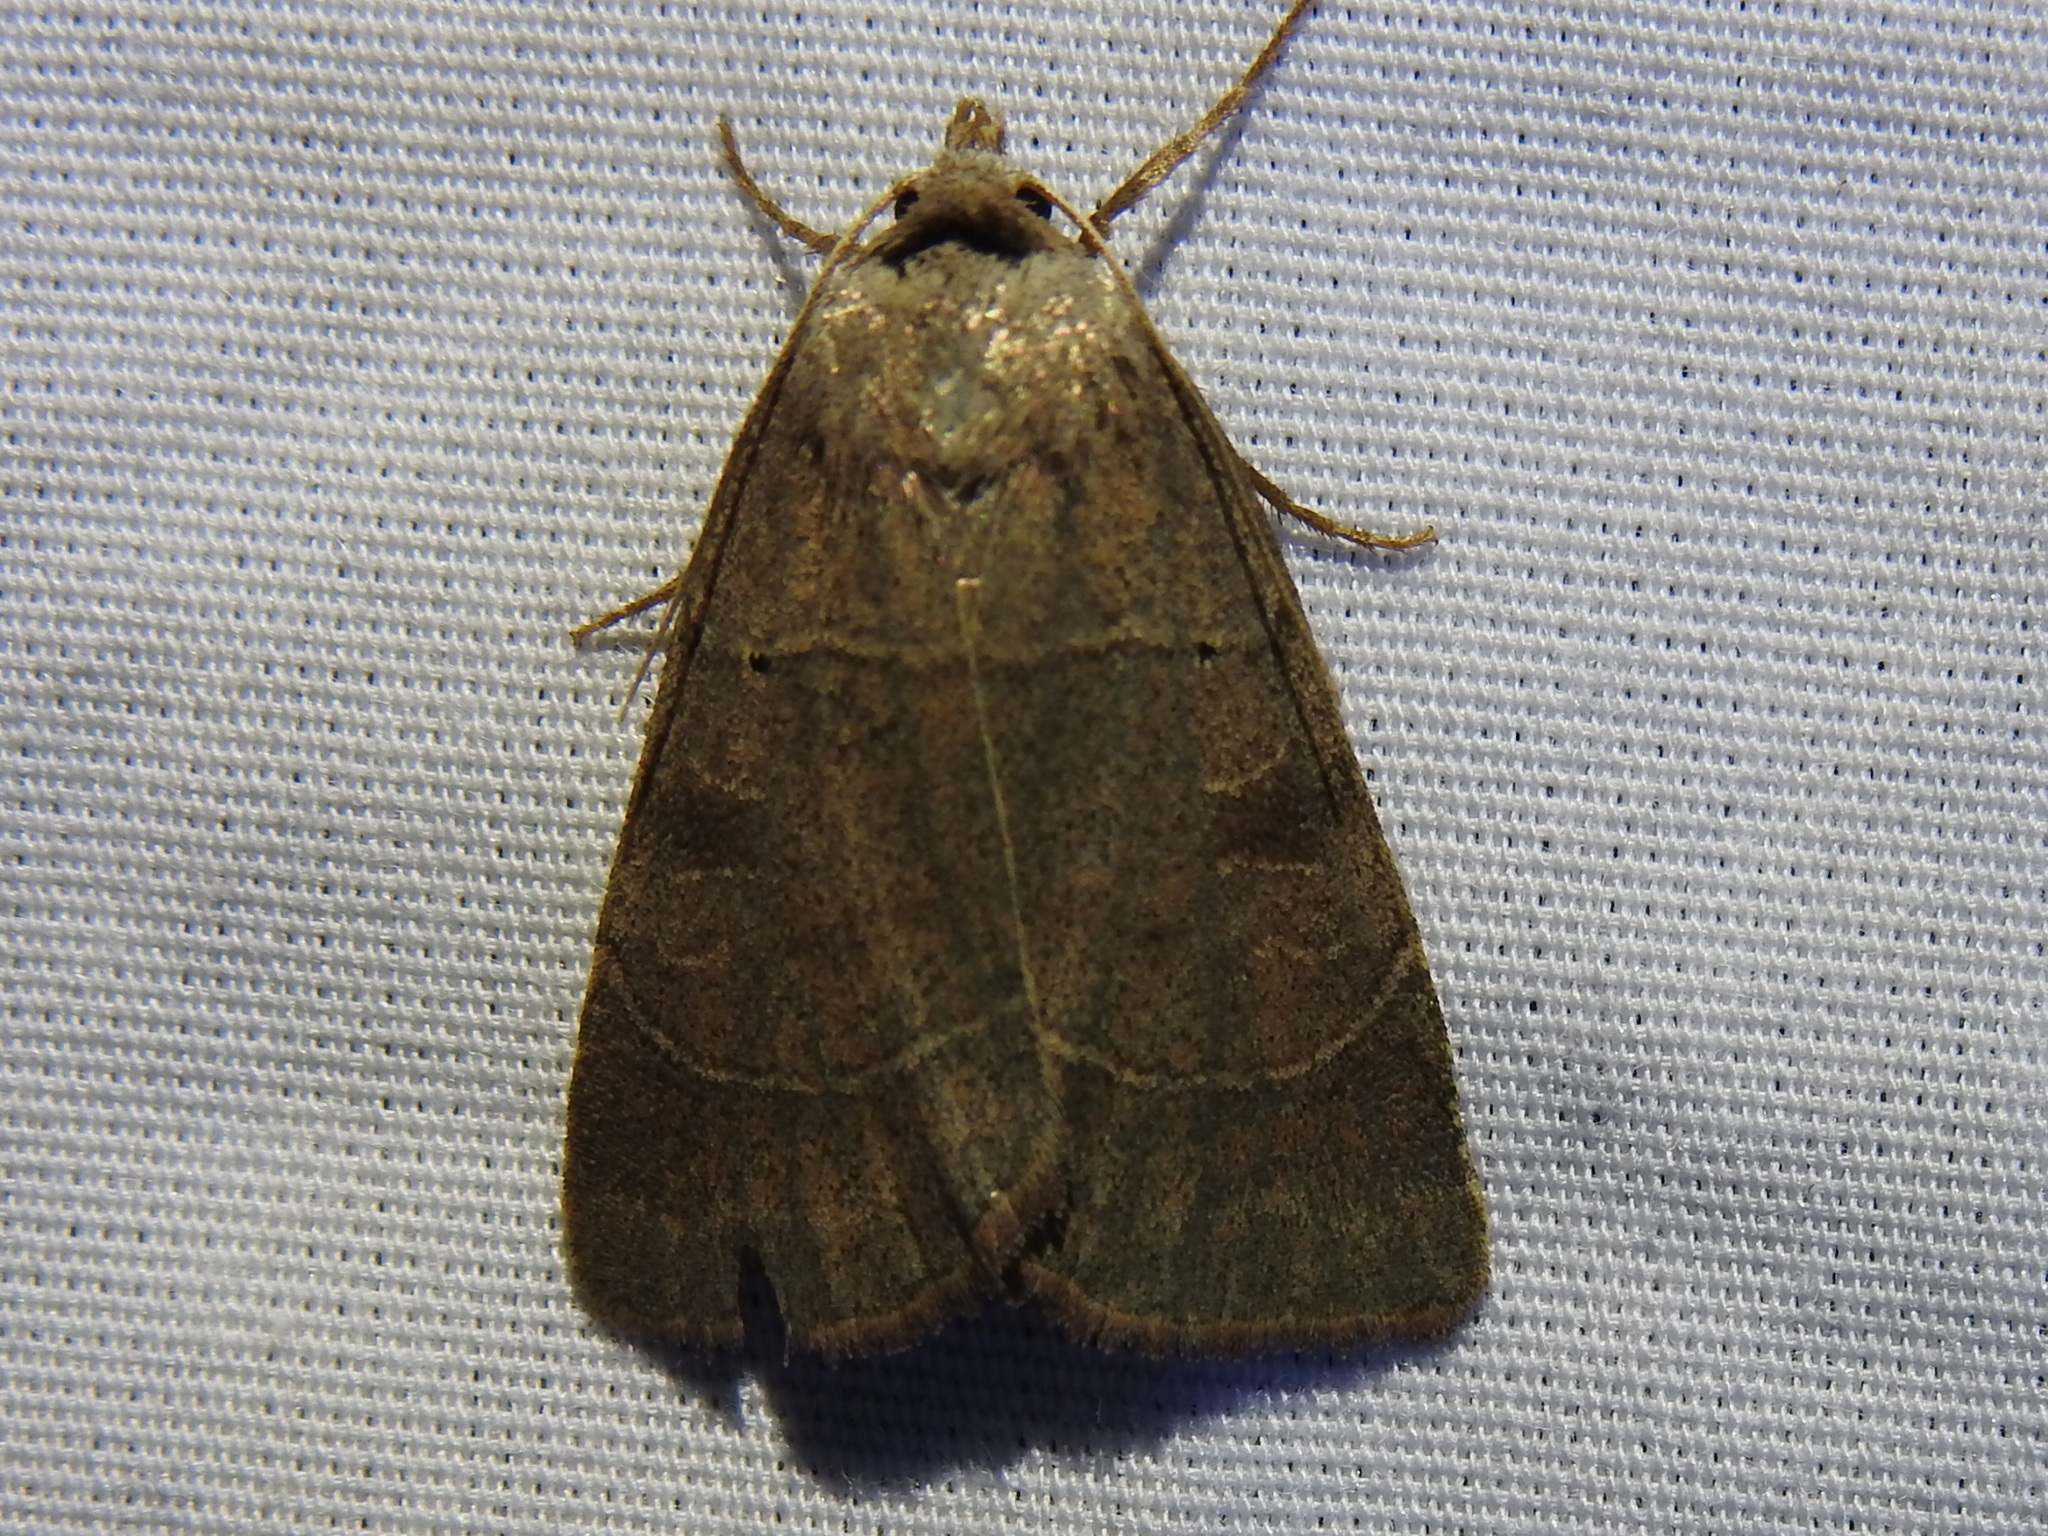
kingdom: Animalia
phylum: Arthropoda
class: Insecta
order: Lepidoptera
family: Noctuidae
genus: Agnorisma
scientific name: Agnorisma badinodis
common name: Pale-banded dart
